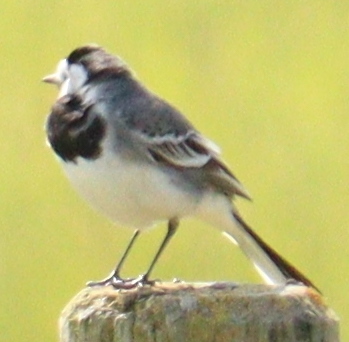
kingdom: Animalia
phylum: Chordata
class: Aves
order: Passeriformes
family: Motacillidae
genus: Motacilla
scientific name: Motacilla alba
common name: White wagtail
